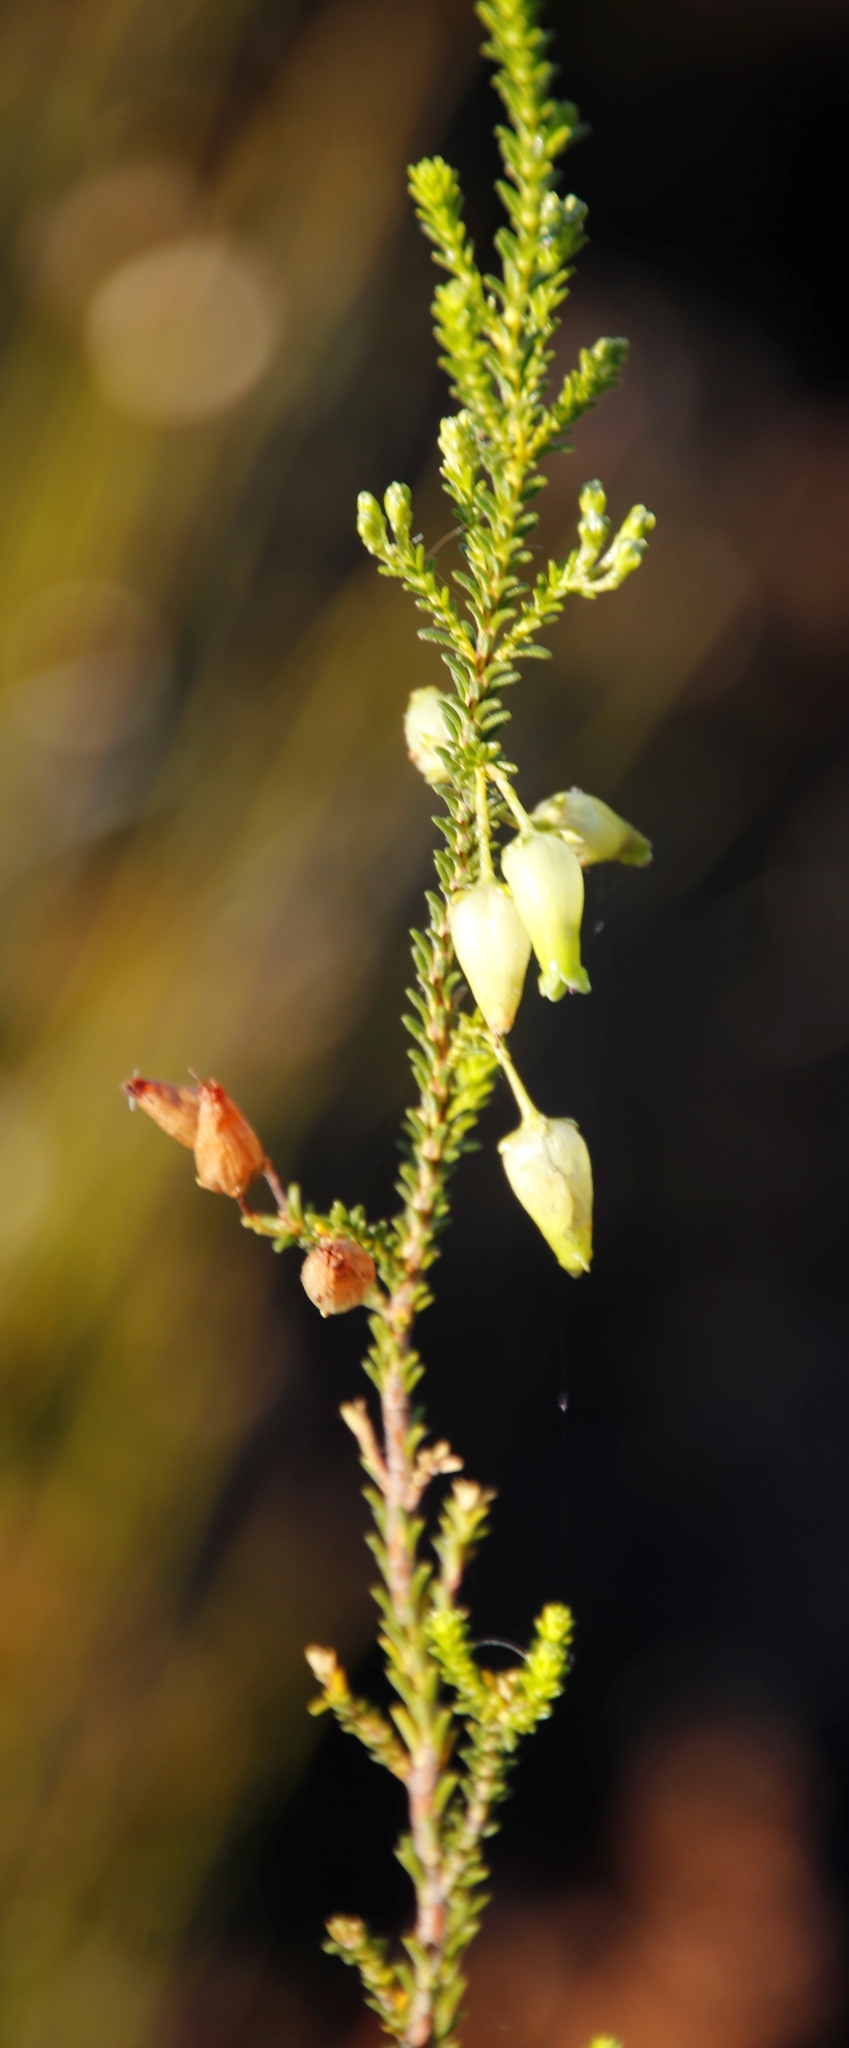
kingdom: Plantae
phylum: Tracheophyta
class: Magnoliopsida
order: Ericales
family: Ericaceae
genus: Erica
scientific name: Erica urna-viridis
